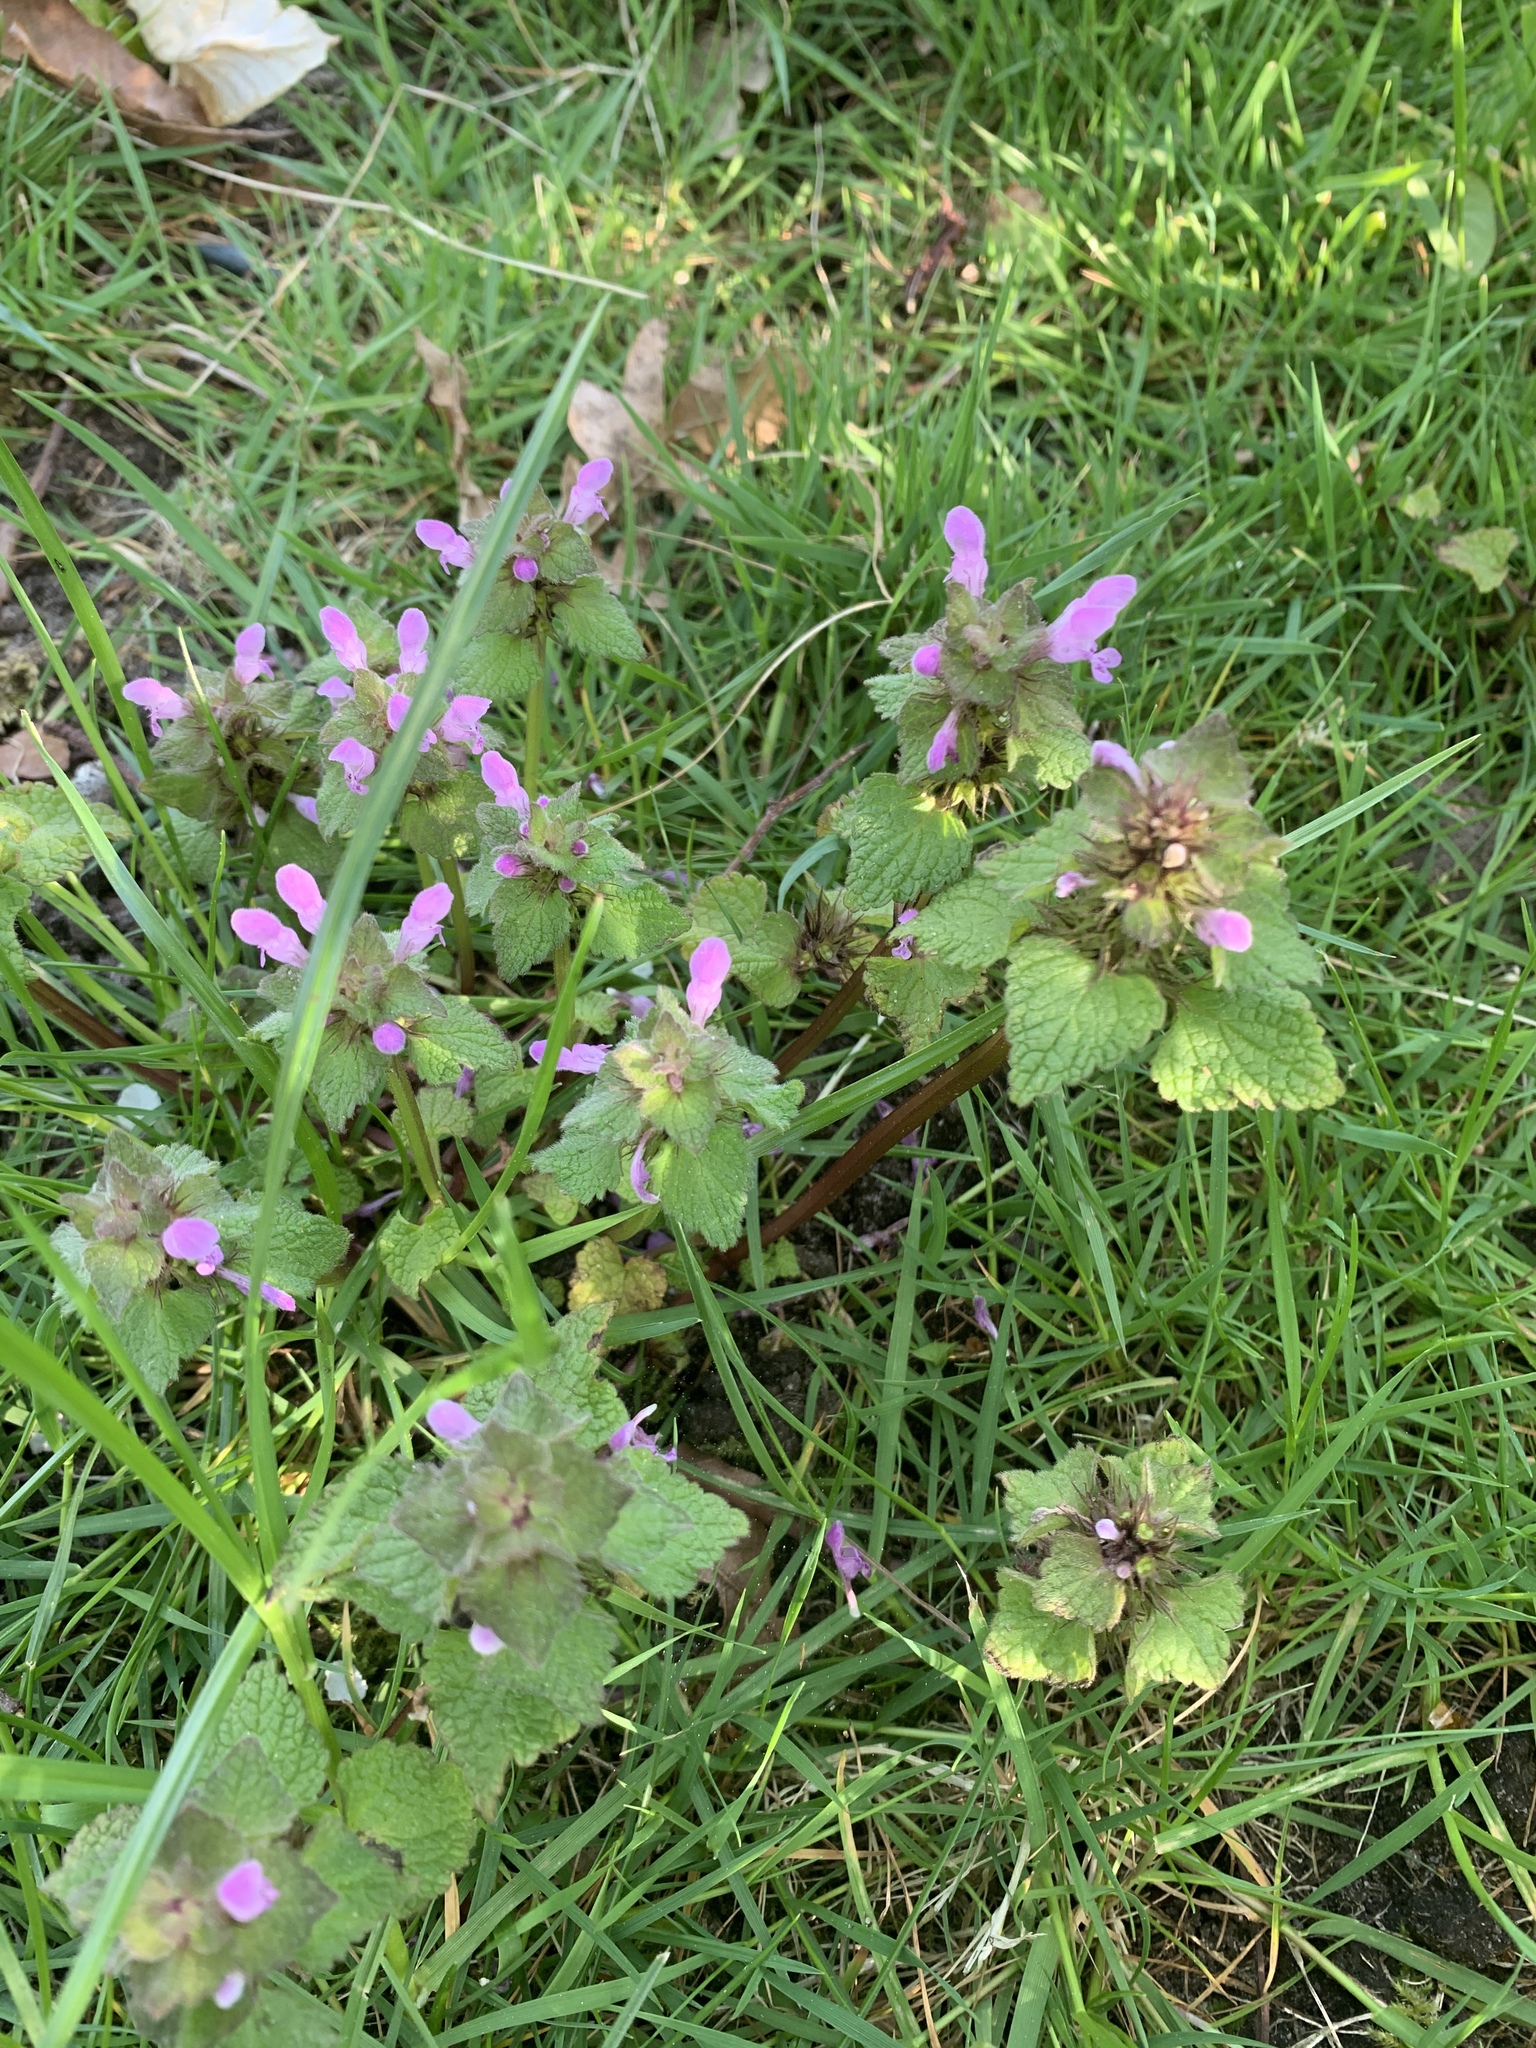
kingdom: Plantae
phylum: Tracheophyta
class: Magnoliopsida
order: Lamiales
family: Lamiaceae
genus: Lamium
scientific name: Lamium purpureum
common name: Red dead-nettle
